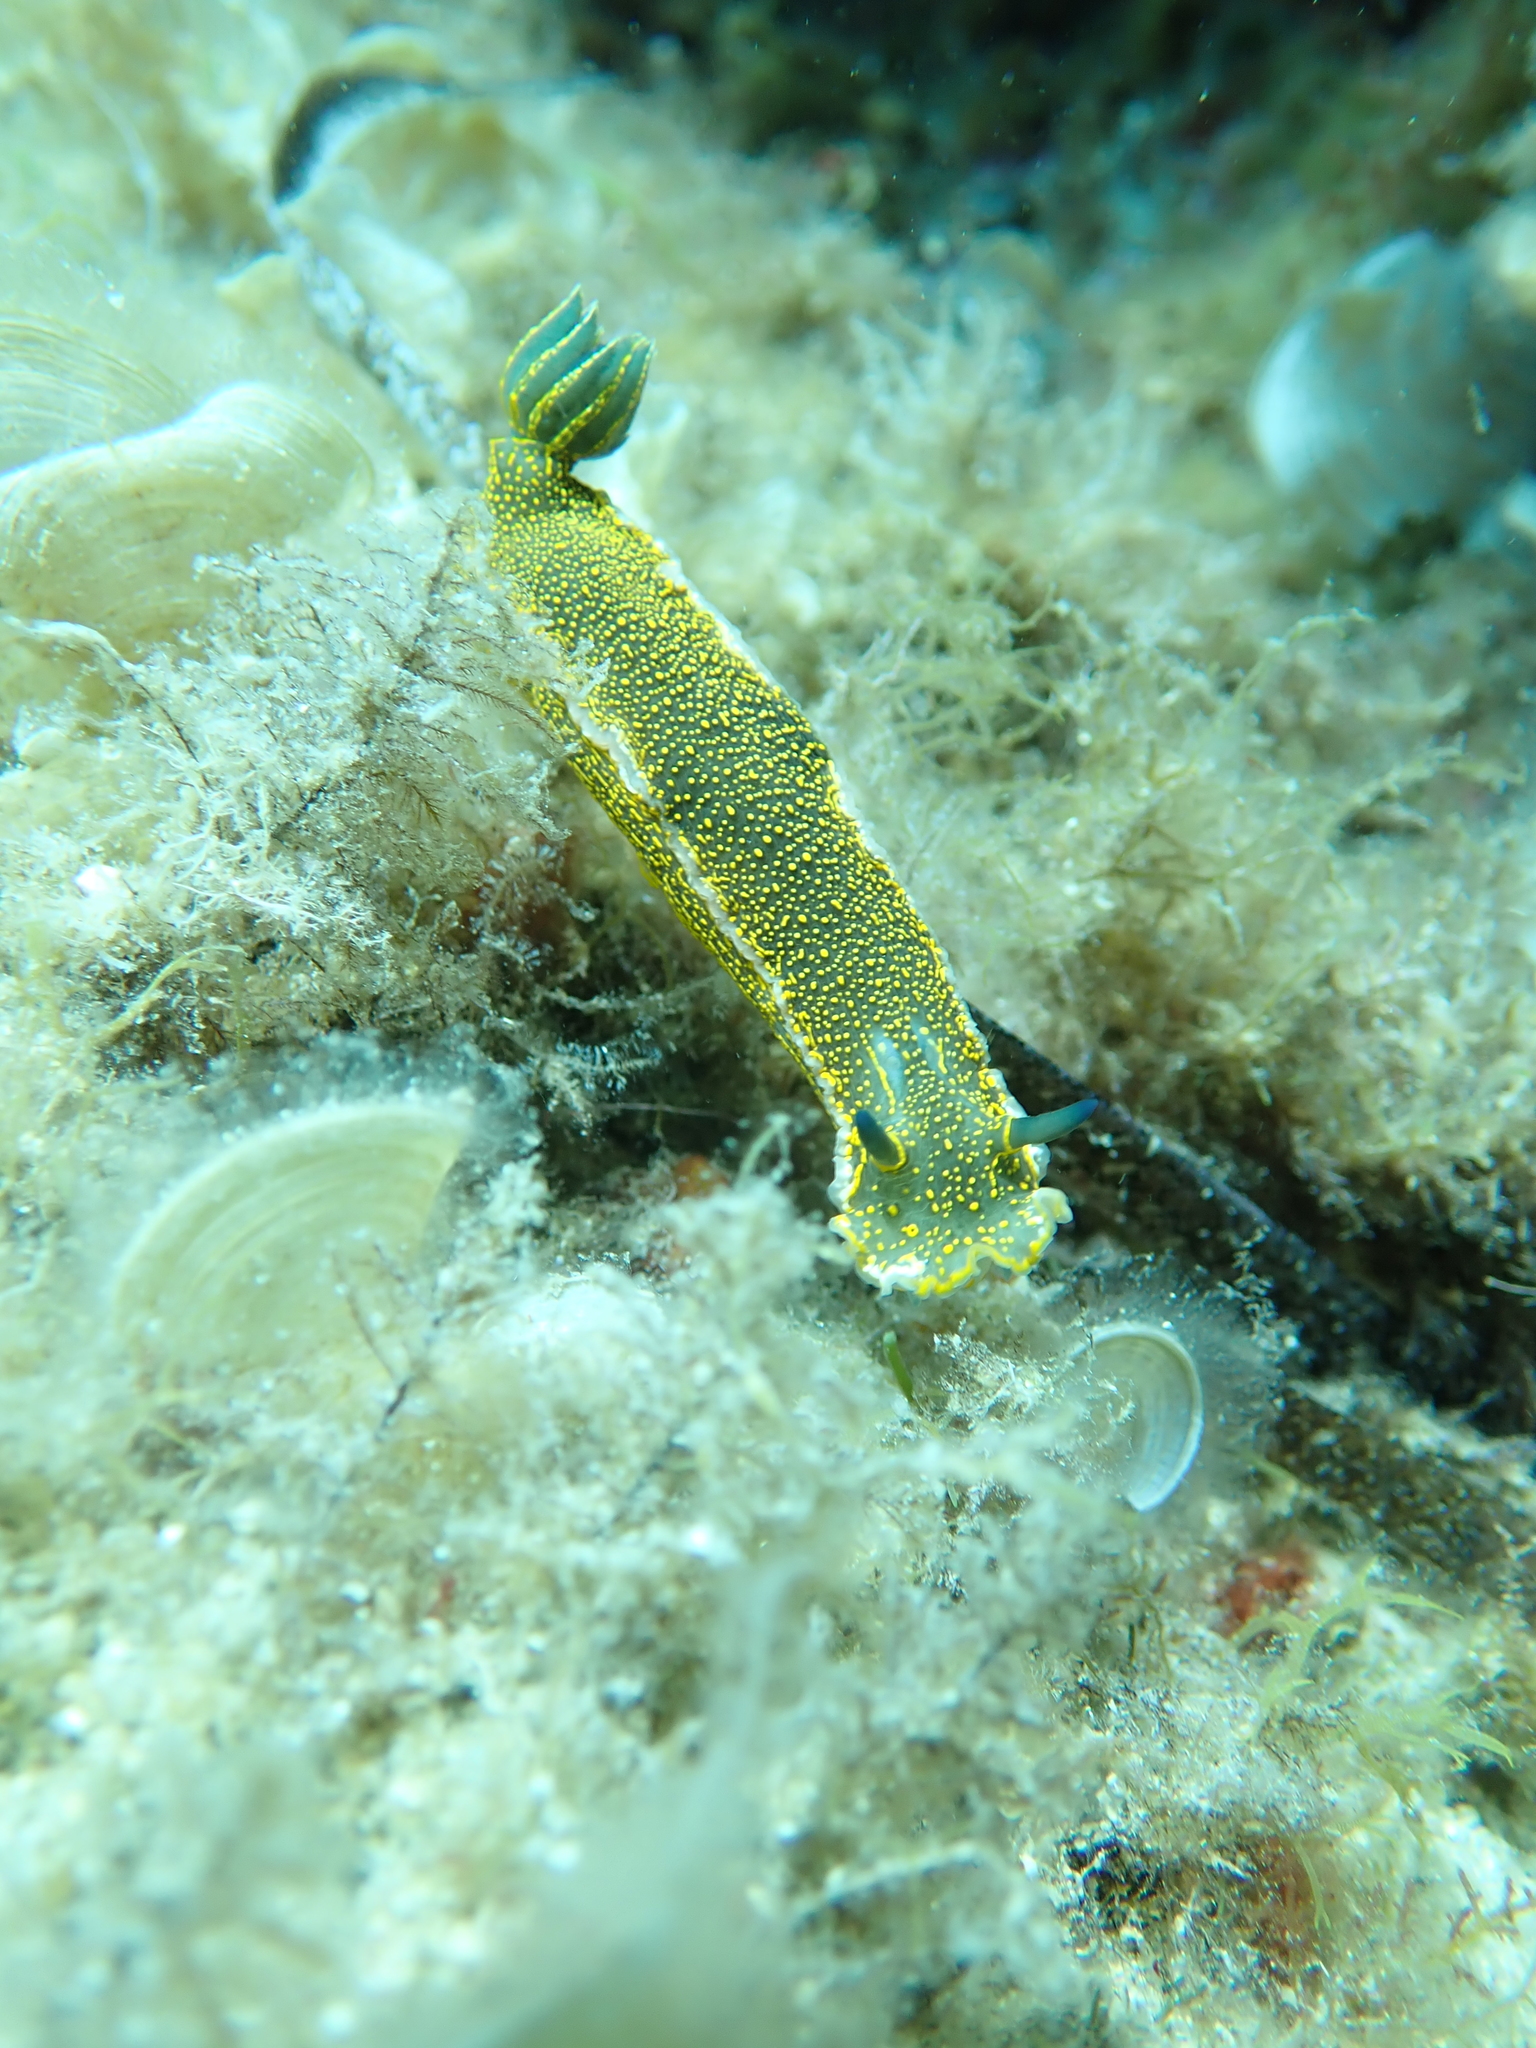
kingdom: Animalia
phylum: Mollusca
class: Gastropoda
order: Nudibranchia
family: Chromodorididae
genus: Felimare
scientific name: Felimare picta
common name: Giant doris
